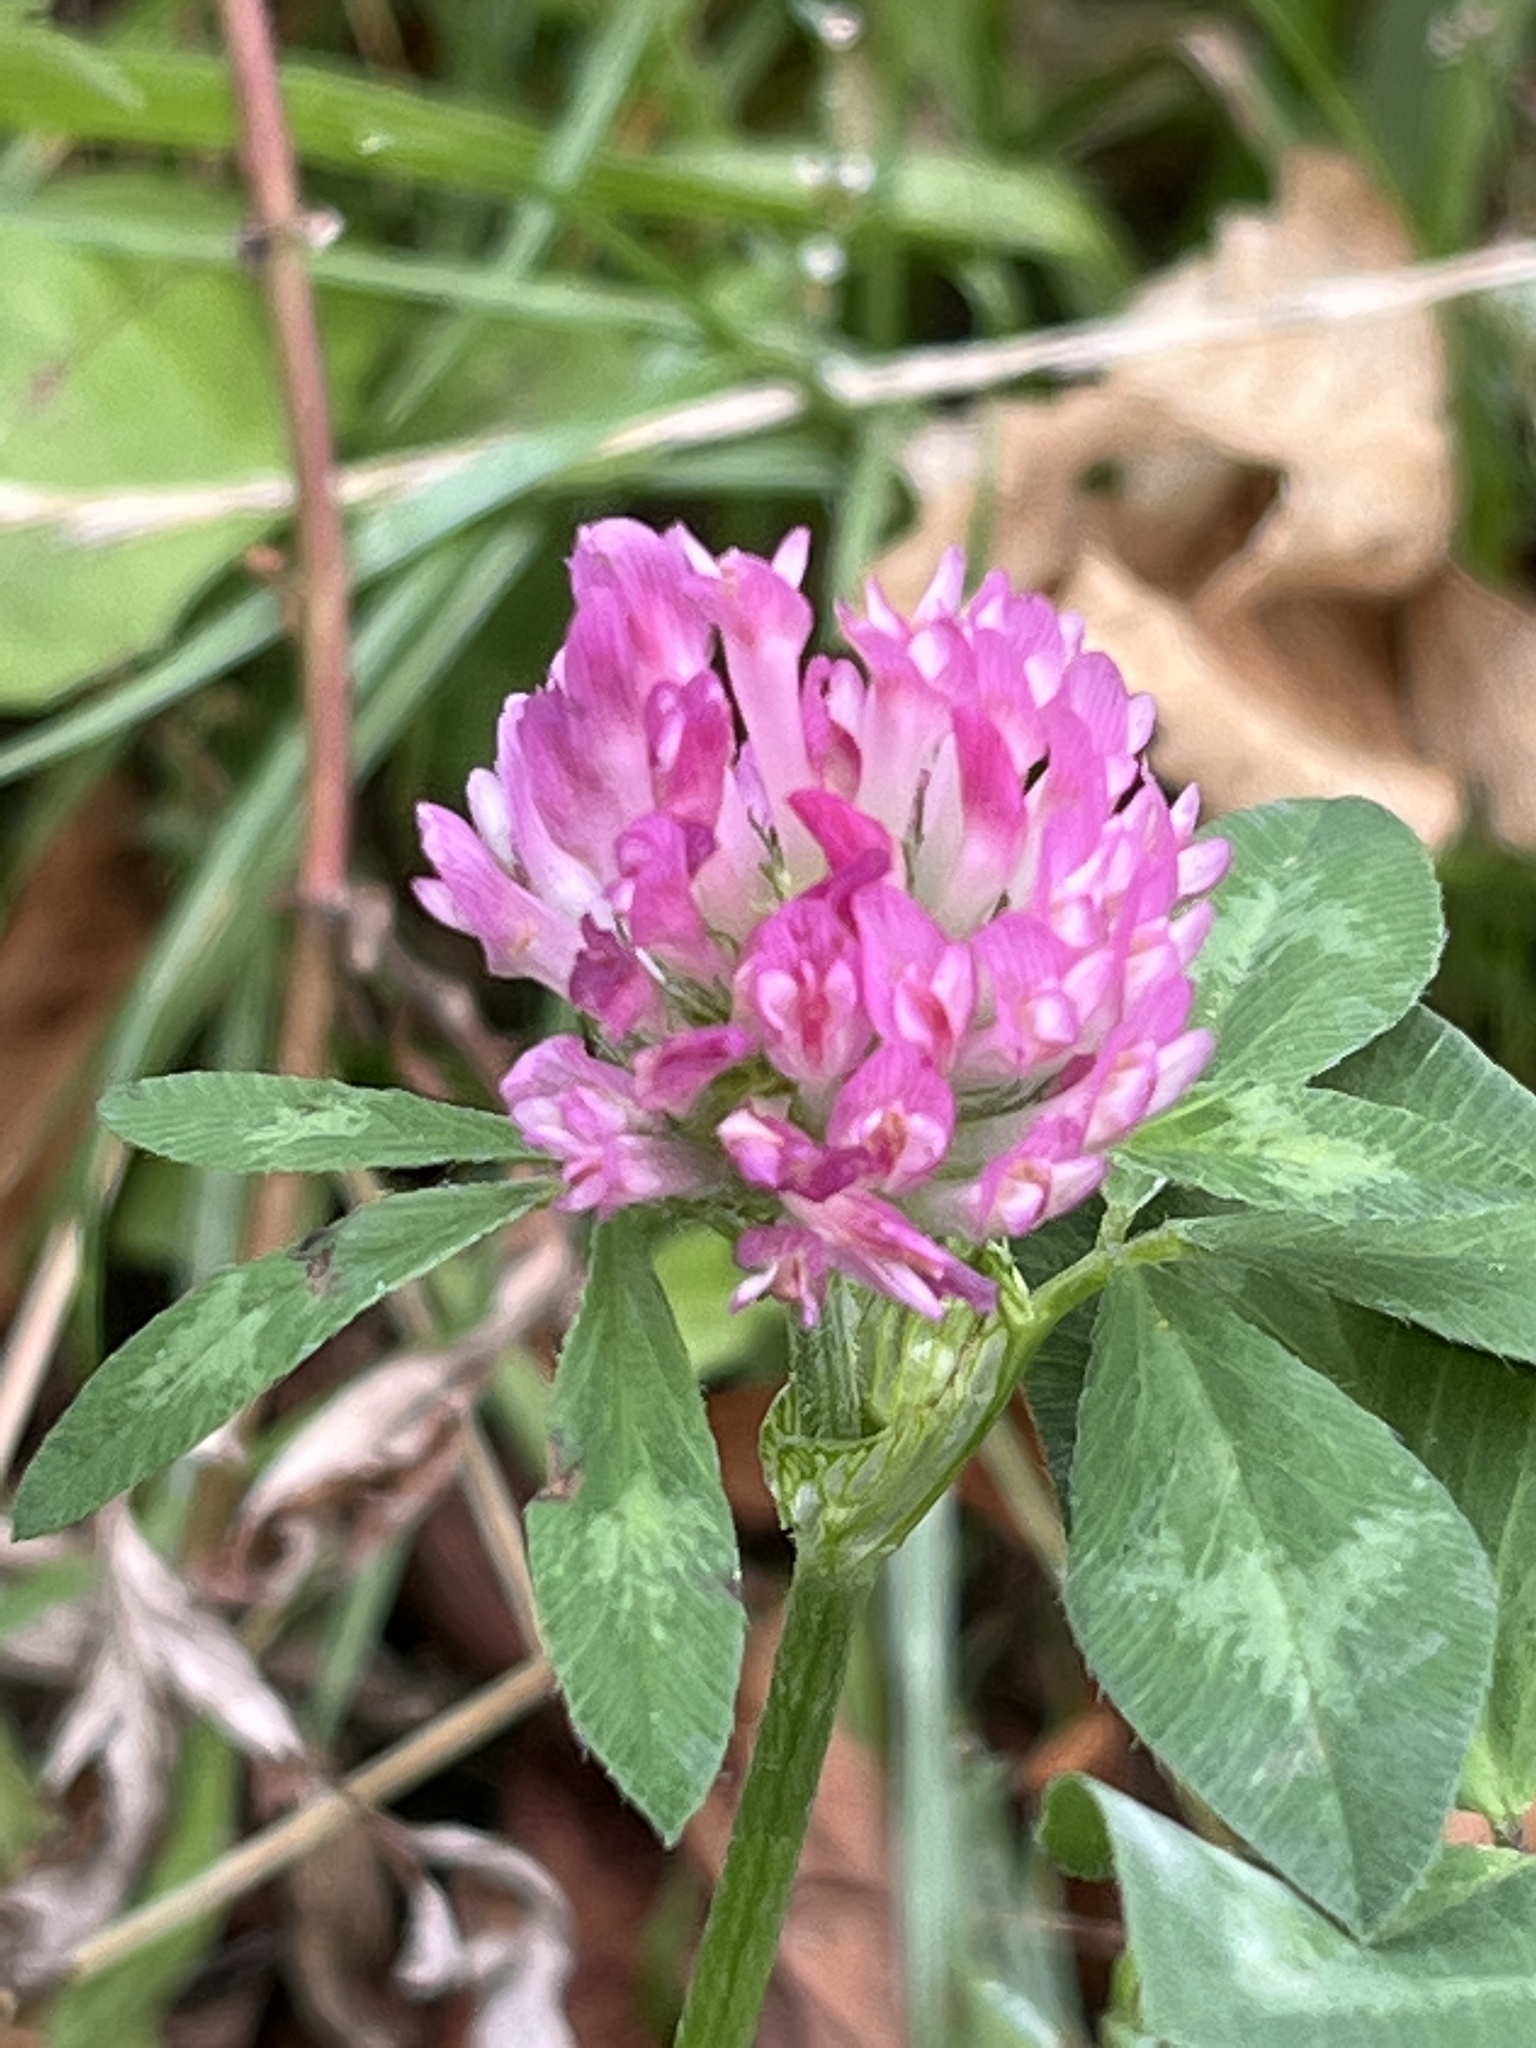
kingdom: Plantae
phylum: Tracheophyta
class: Magnoliopsida
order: Fabales
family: Fabaceae
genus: Trifolium
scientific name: Trifolium pratense
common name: Red clover
